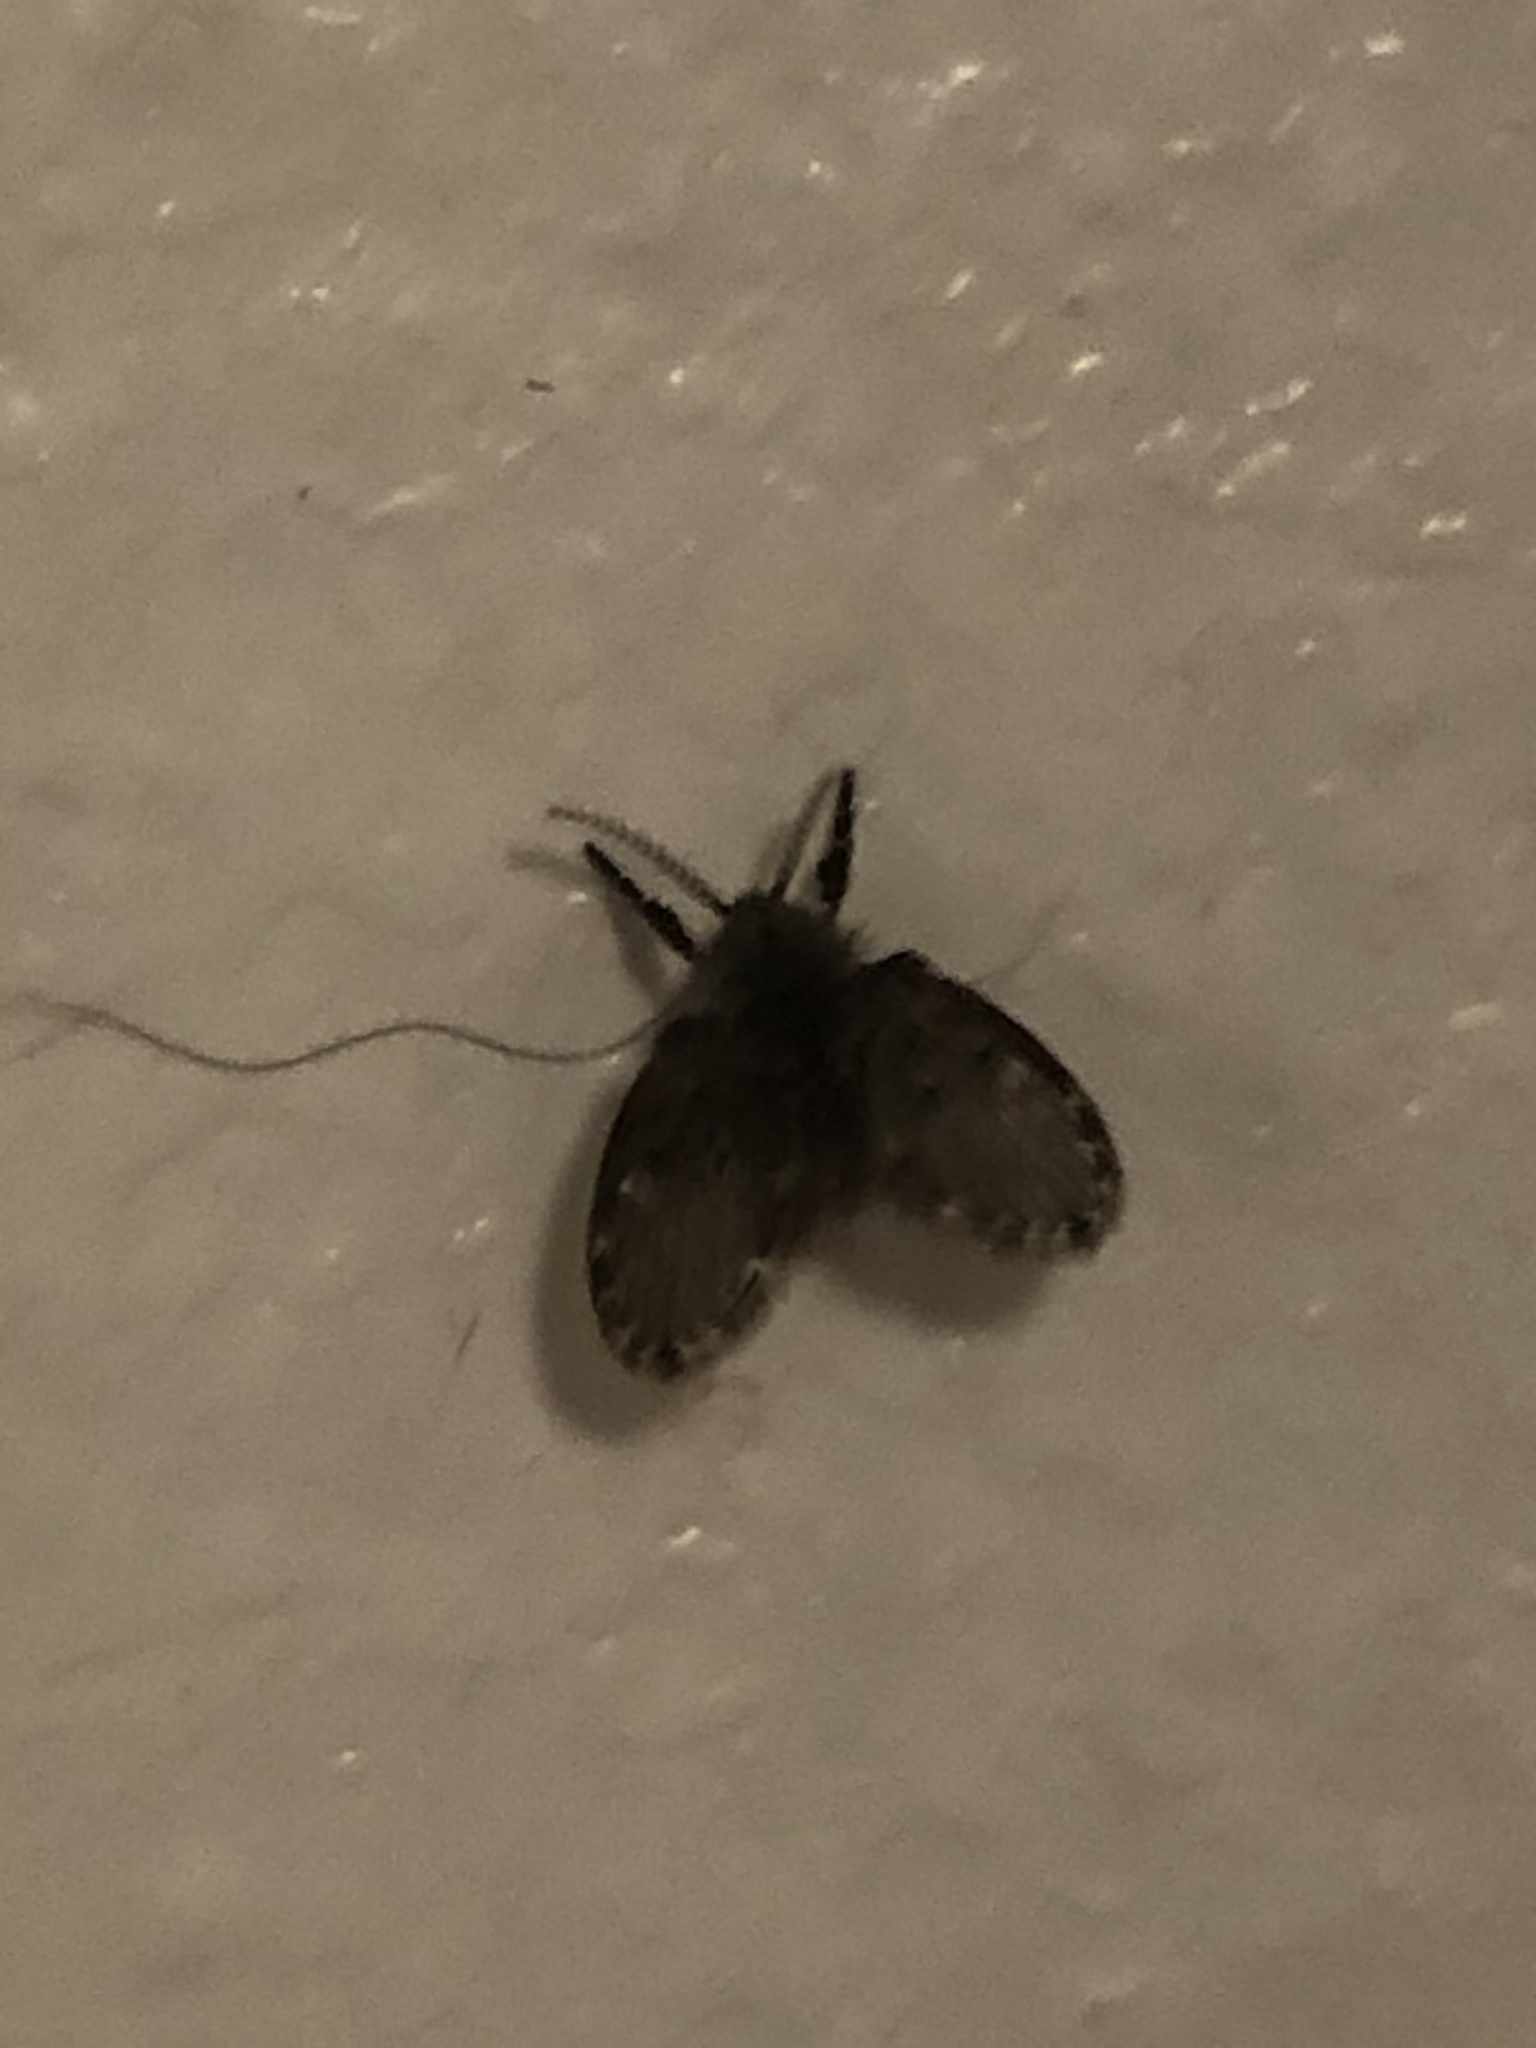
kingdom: Animalia
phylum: Arthropoda
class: Insecta
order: Diptera
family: Psychodidae
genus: Clogmia
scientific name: Clogmia albipunctatus
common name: White-spotted moth fly
